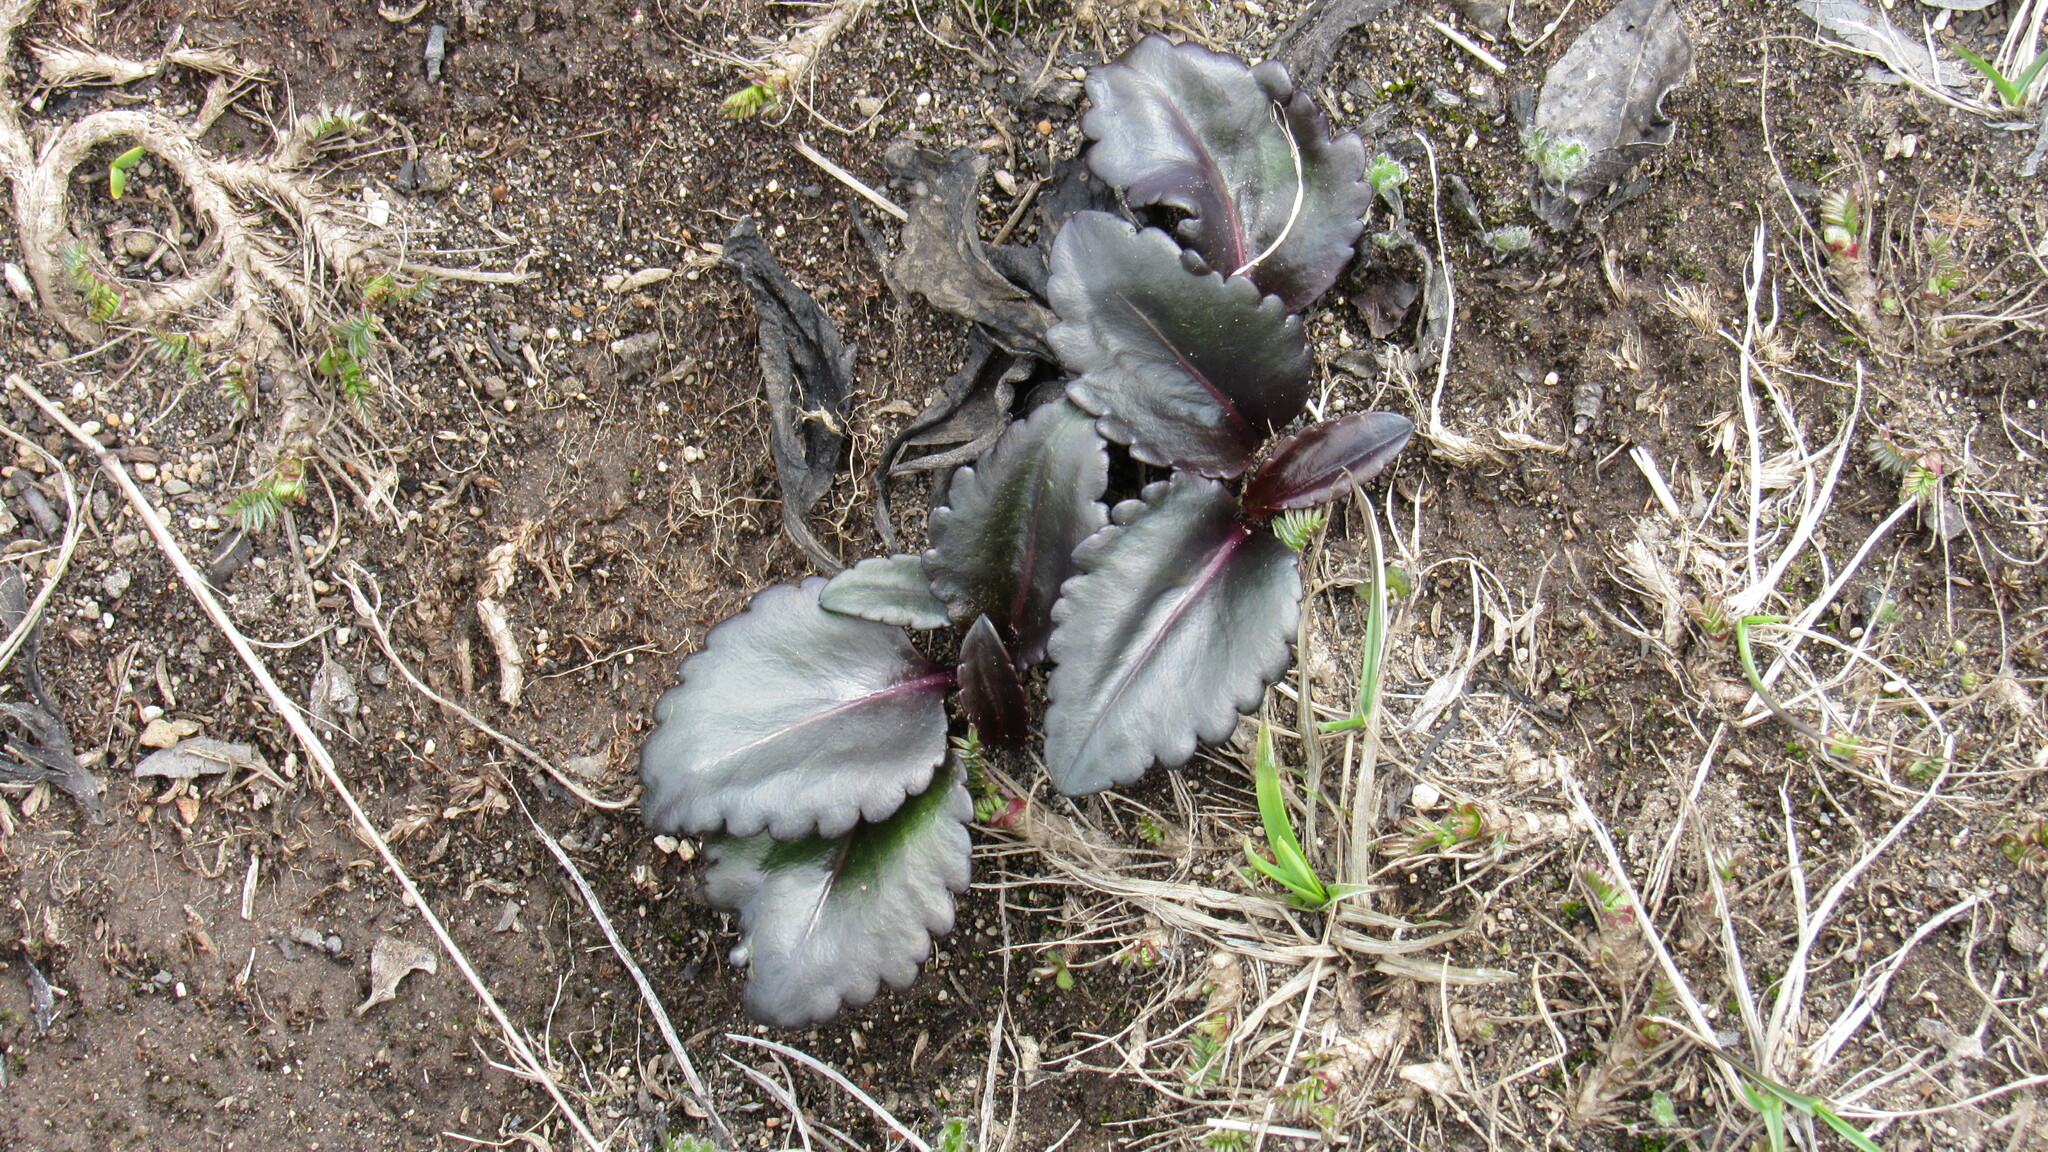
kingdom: Plantae
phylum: Tracheophyta
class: Magnoliopsida
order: Lamiales
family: Plantaginaceae
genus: Lagotis
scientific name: Lagotis glauca
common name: Glaucous weaselsnout
